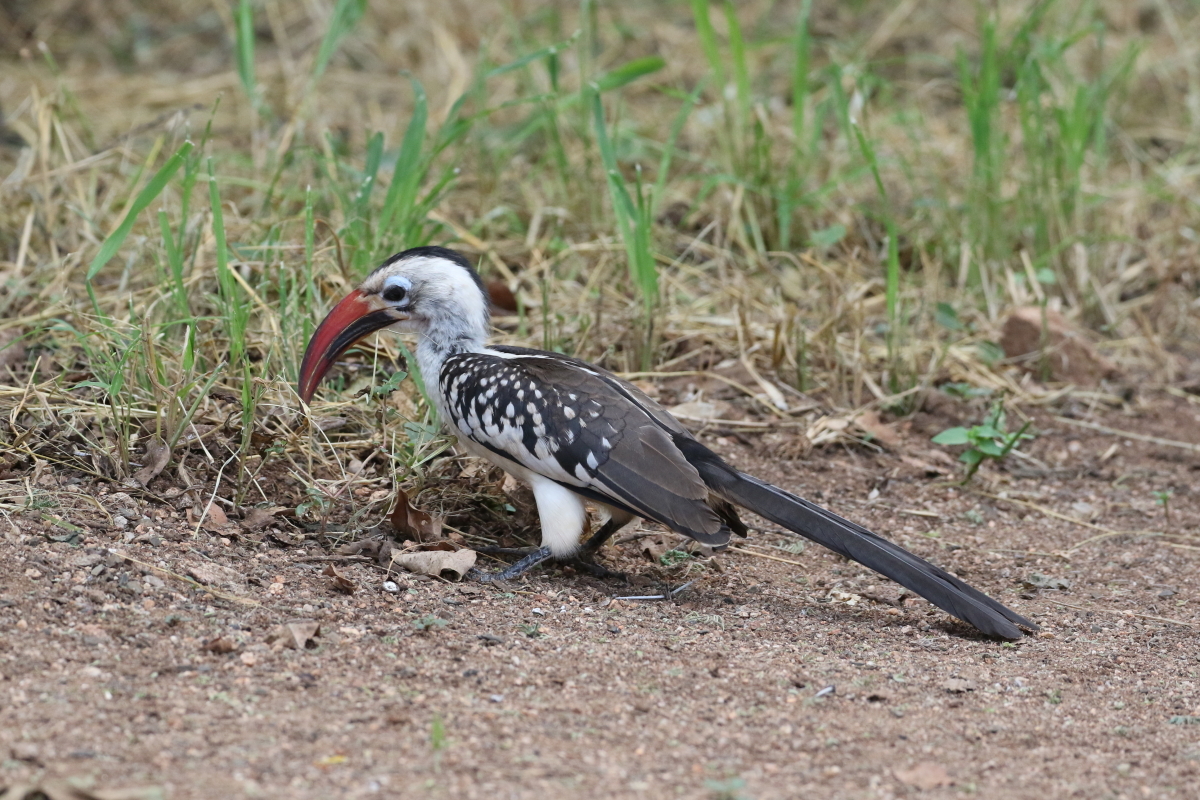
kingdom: Animalia
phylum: Chordata
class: Aves
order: Bucerotiformes
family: Bucerotidae
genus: Tockus
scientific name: Tockus erythrorhynchus
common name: Northern red-billed hornbill
